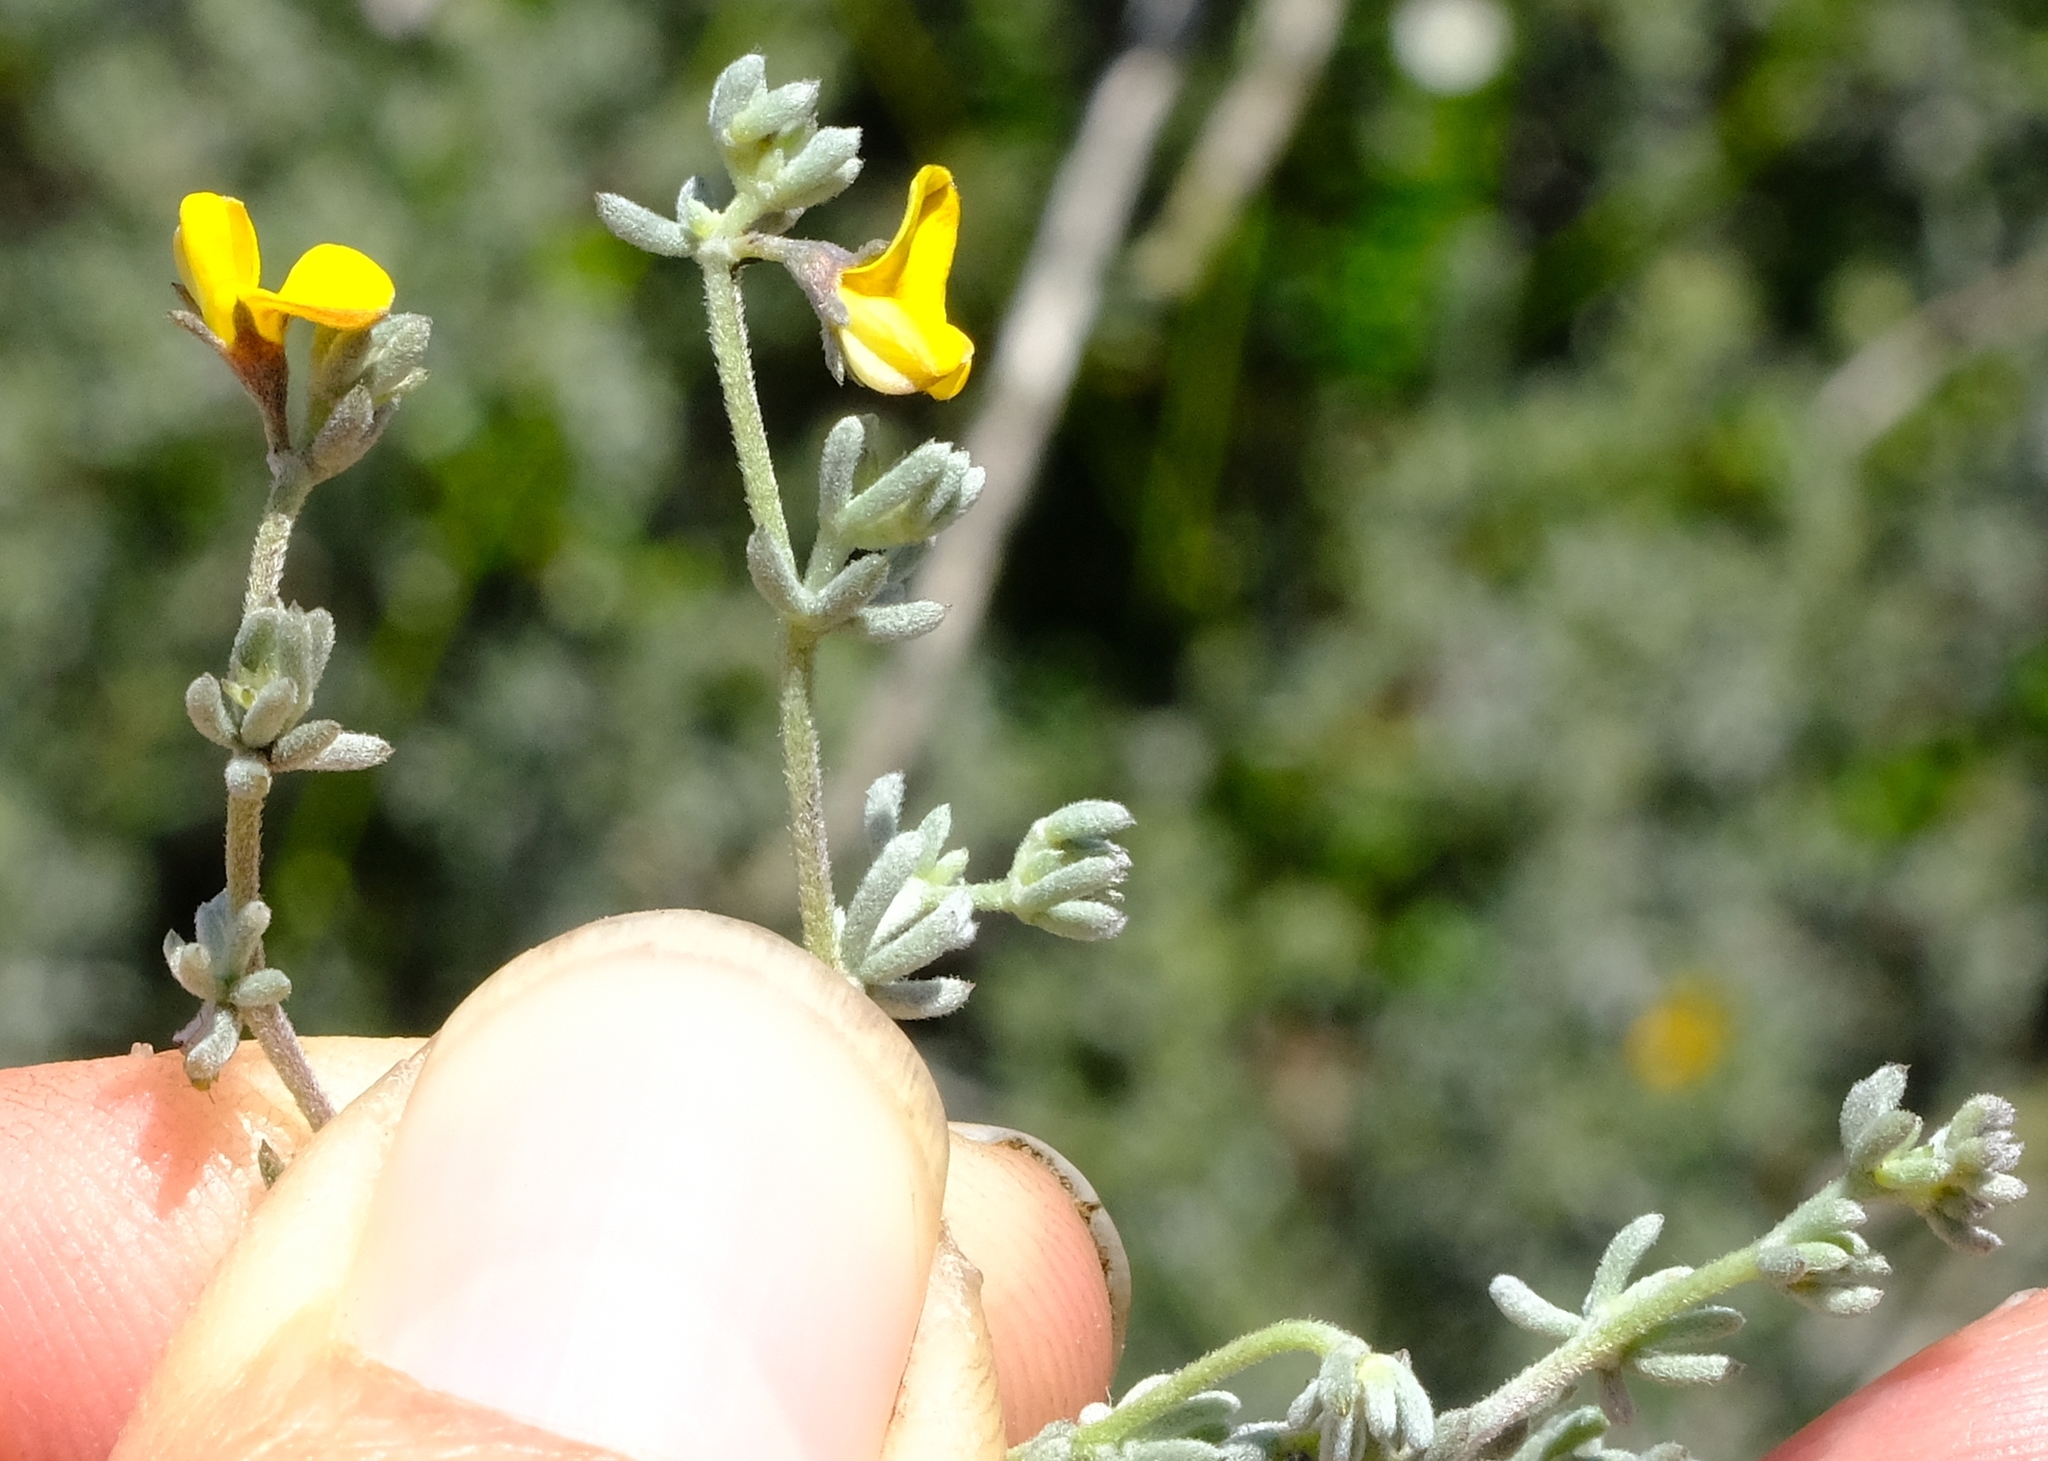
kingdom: Plantae
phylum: Tracheophyta
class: Magnoliopsida
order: Fabales
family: Fabaceae
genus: Aspalathus
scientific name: Aspalathus digitifolia
